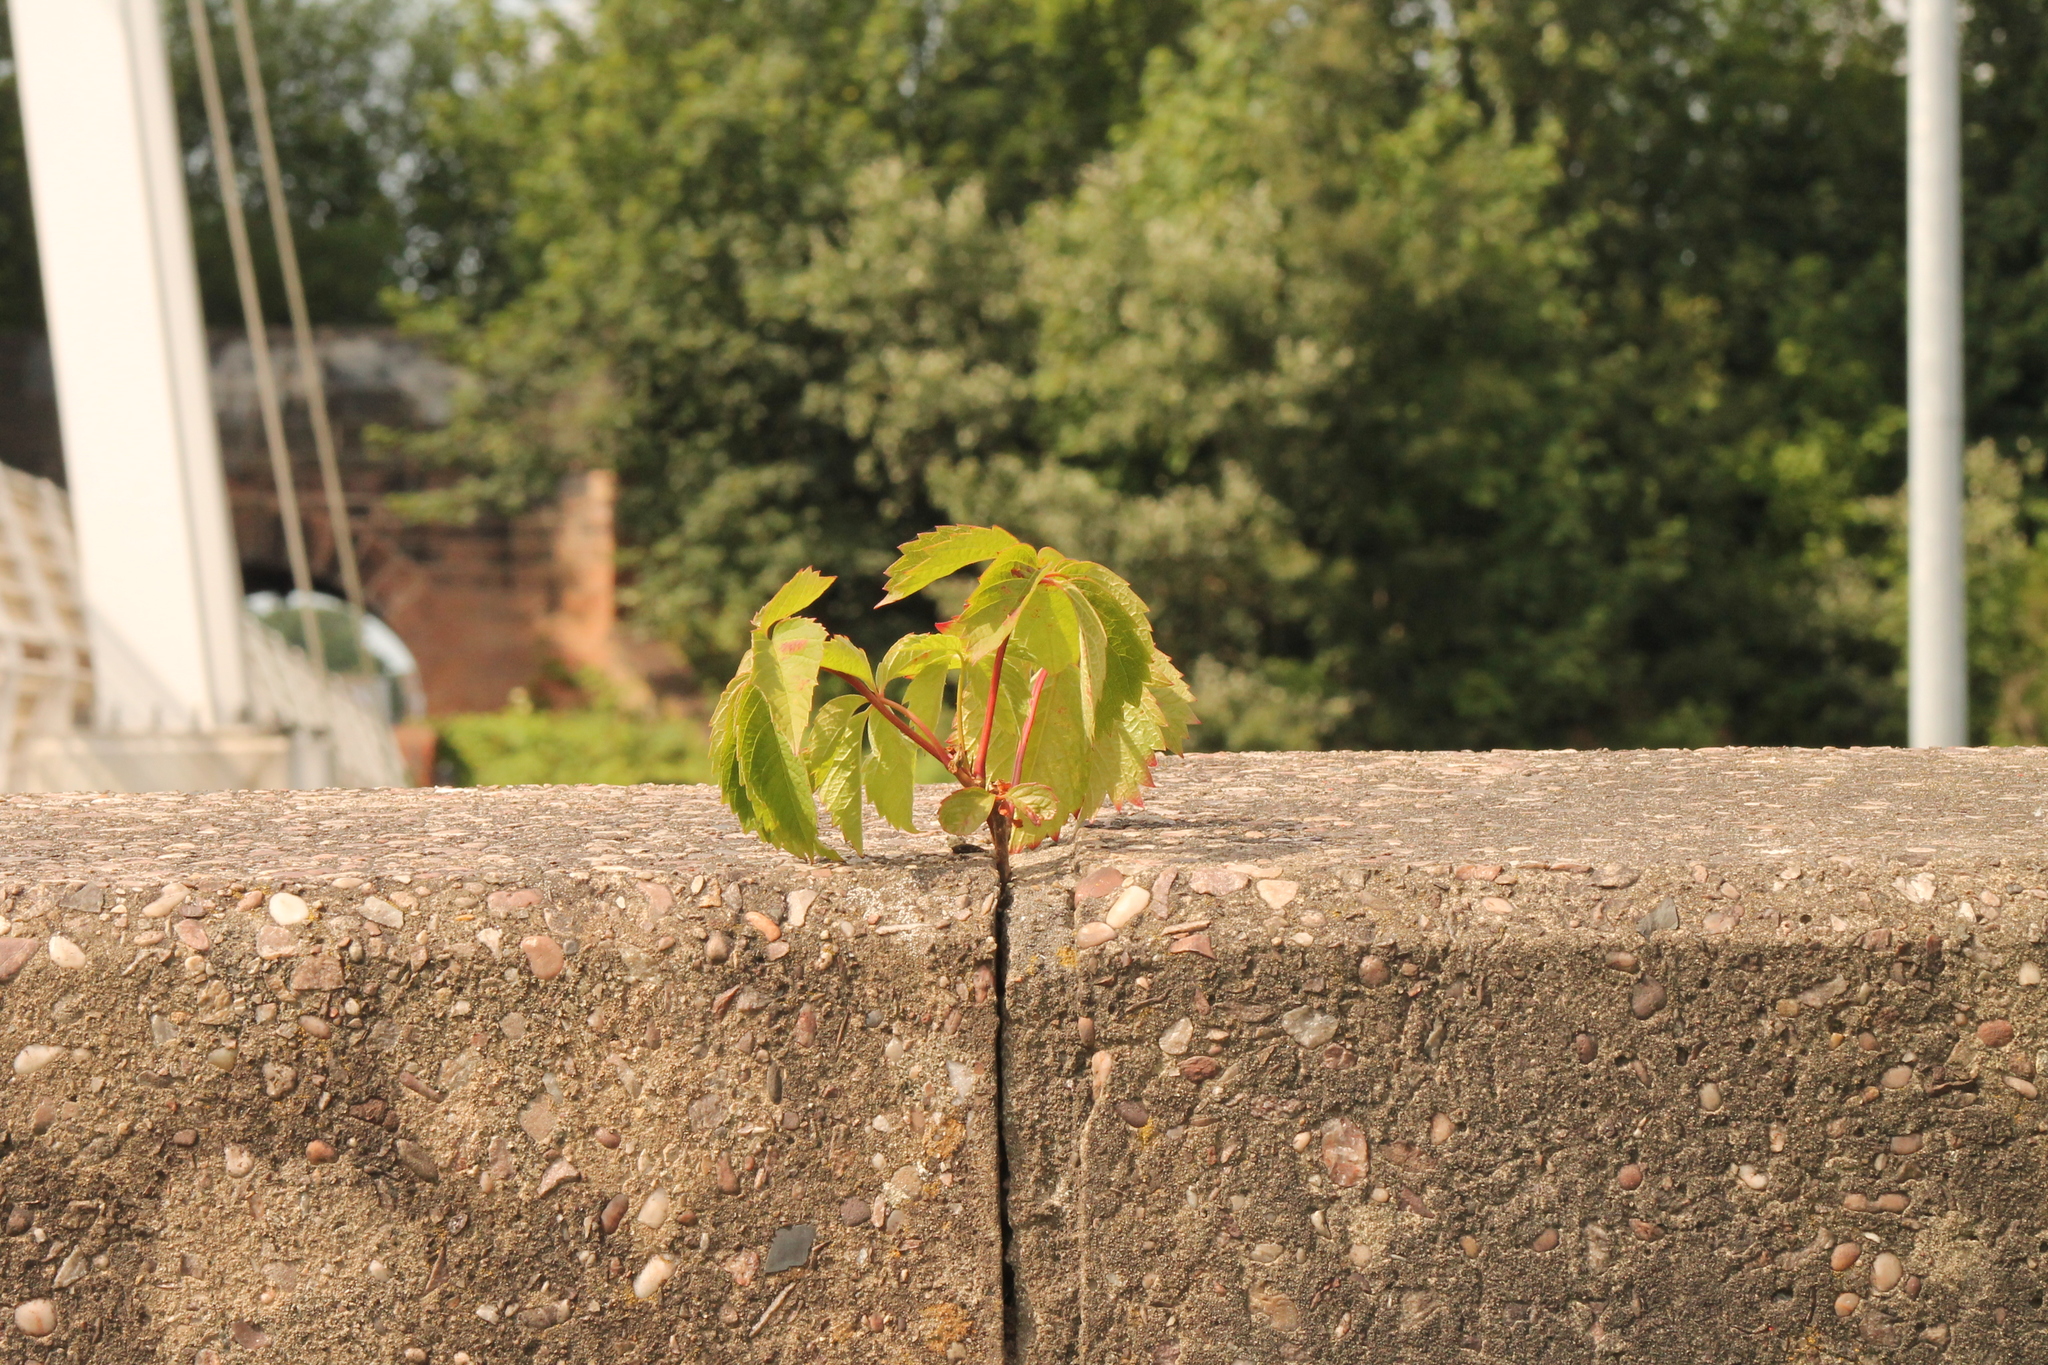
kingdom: Plantae
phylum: Tracheophyta
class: Magnoliopsida
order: Vitales
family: Vitaceae
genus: Parthenocissus
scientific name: Parthenocissus quinquefolia
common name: Virginia-creeper
